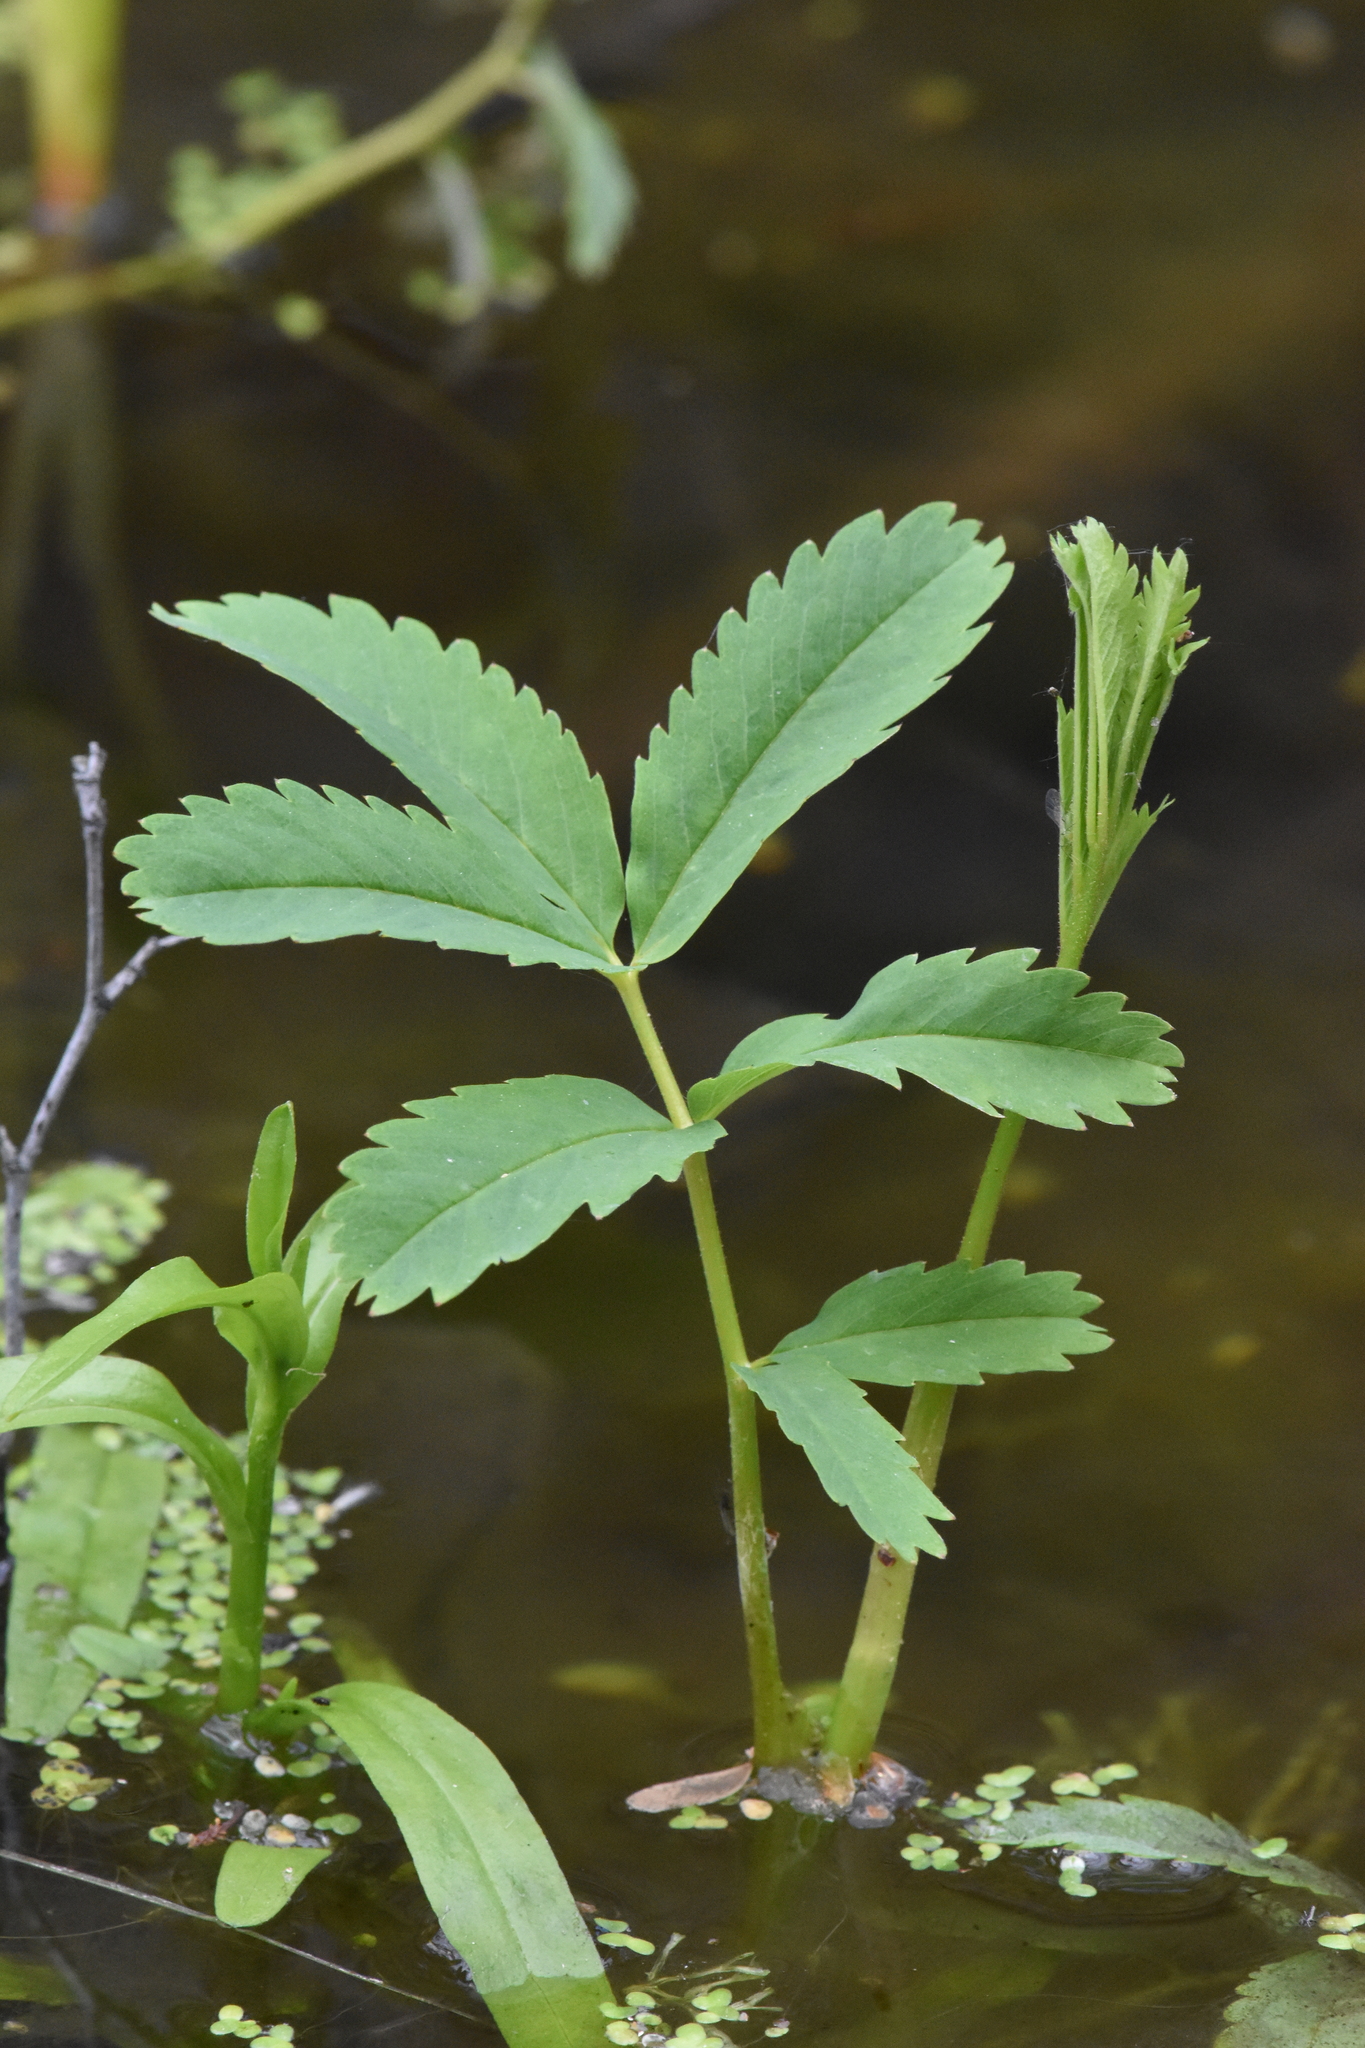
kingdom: Plantae
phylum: Tracheophyta
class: Magnoliopsida
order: Rosales
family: Rosaceae
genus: Comarum
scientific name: Comarum palustre
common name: Marsh cinquefoil
